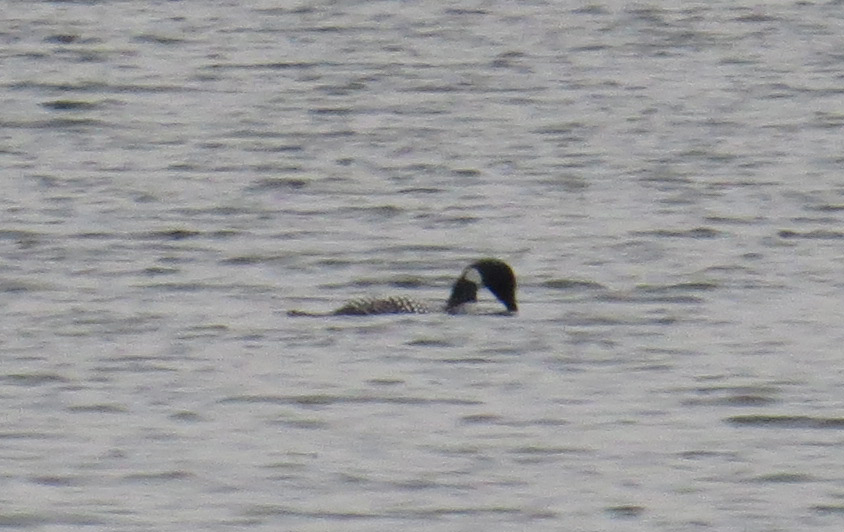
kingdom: Animalia
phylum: Chordata
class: Aves
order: Gaviiformes
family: Gaviidae
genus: Gavia
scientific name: Gavia immer
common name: Common loon
